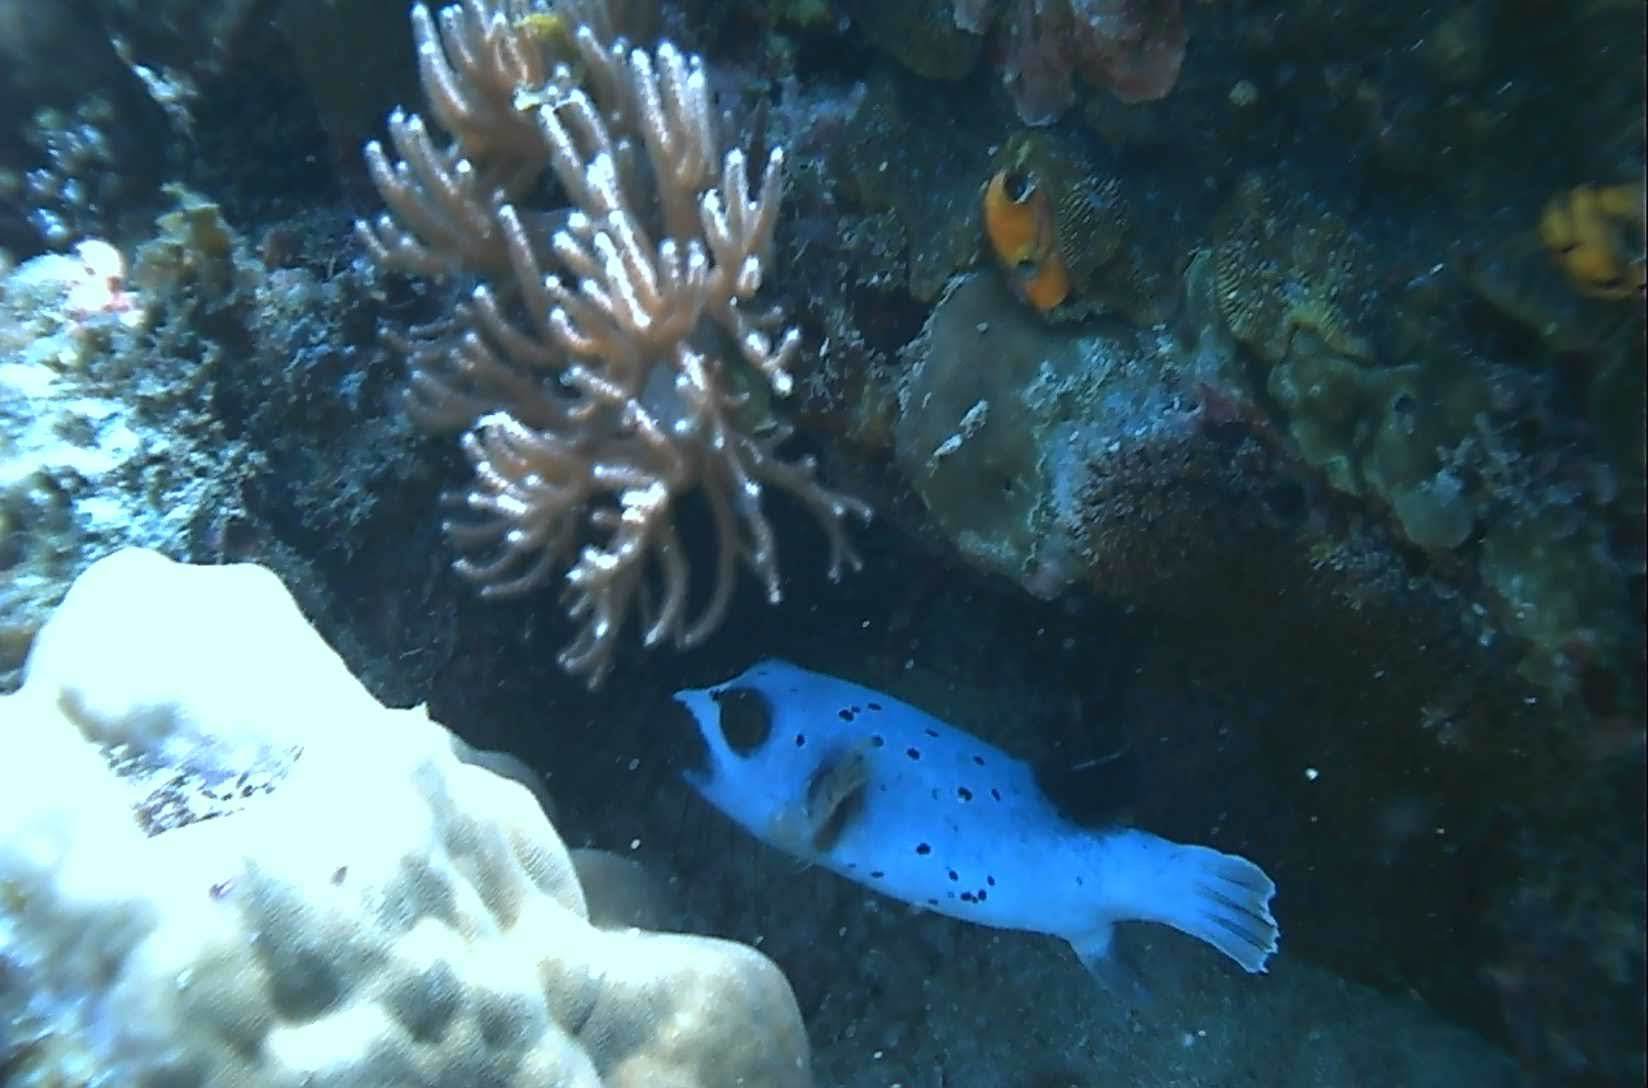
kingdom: Animalia
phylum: Chordata
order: Tetraodontiformes
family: Tetraodontidae
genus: Arothron
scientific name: Arothron nigropunctatus
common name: Black spotted blow fish
